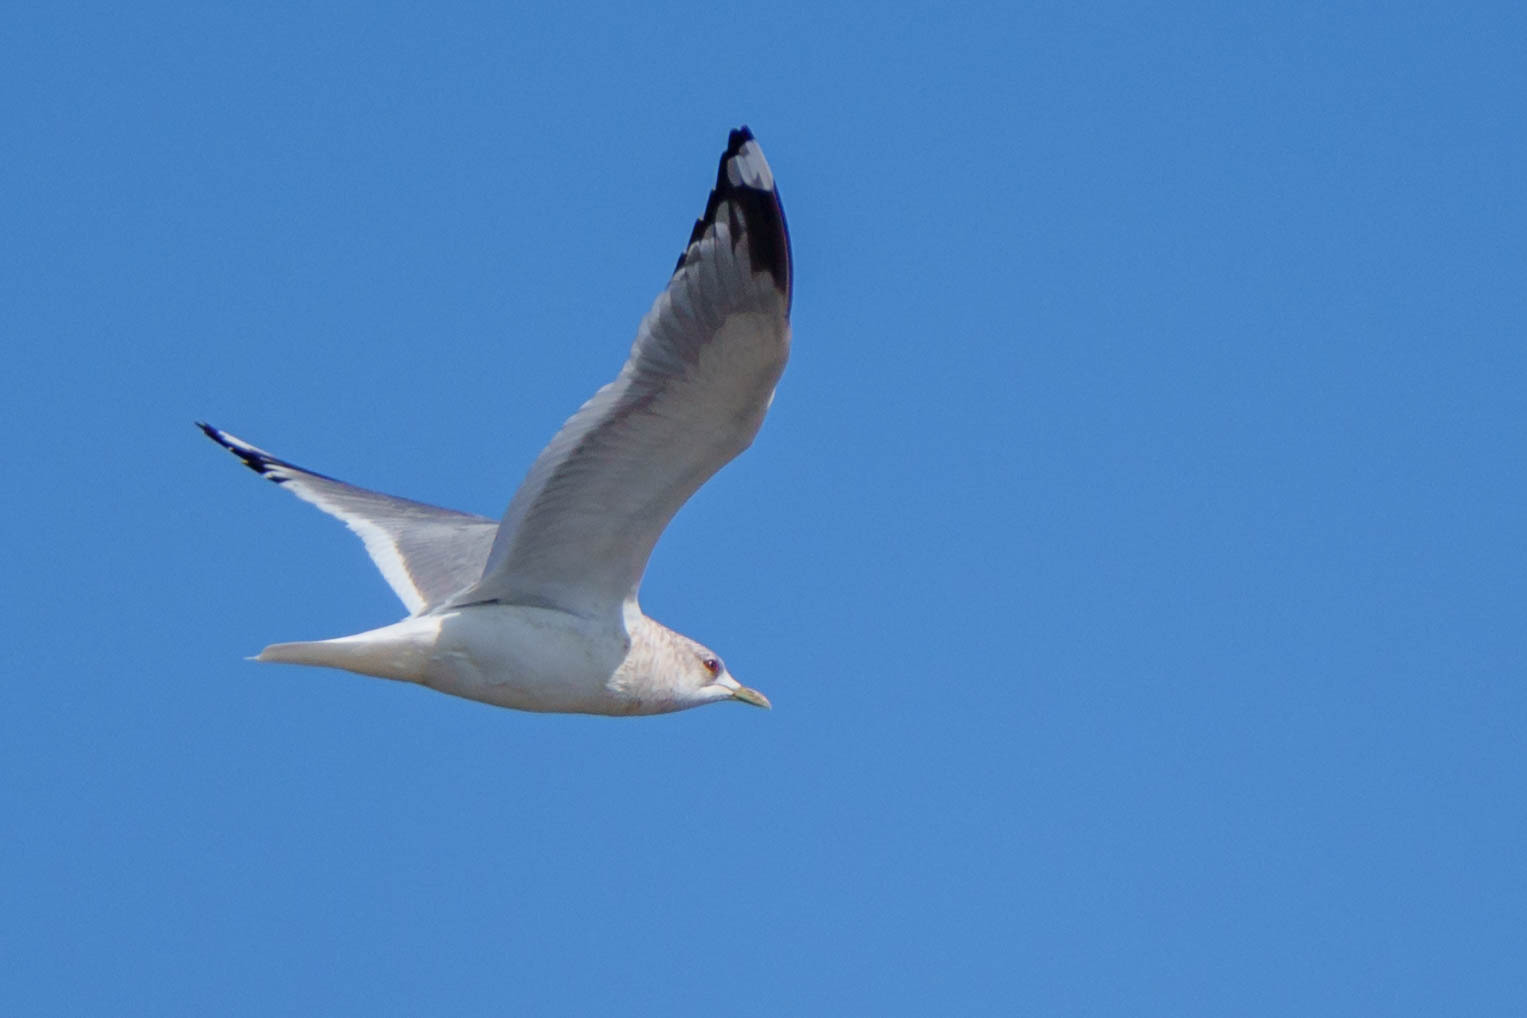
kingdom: Animalia
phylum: Chordata
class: Aves
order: Charadriiformes
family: Laridae
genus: Larus
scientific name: Larus brachyrhynchus
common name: Short-billed gull
